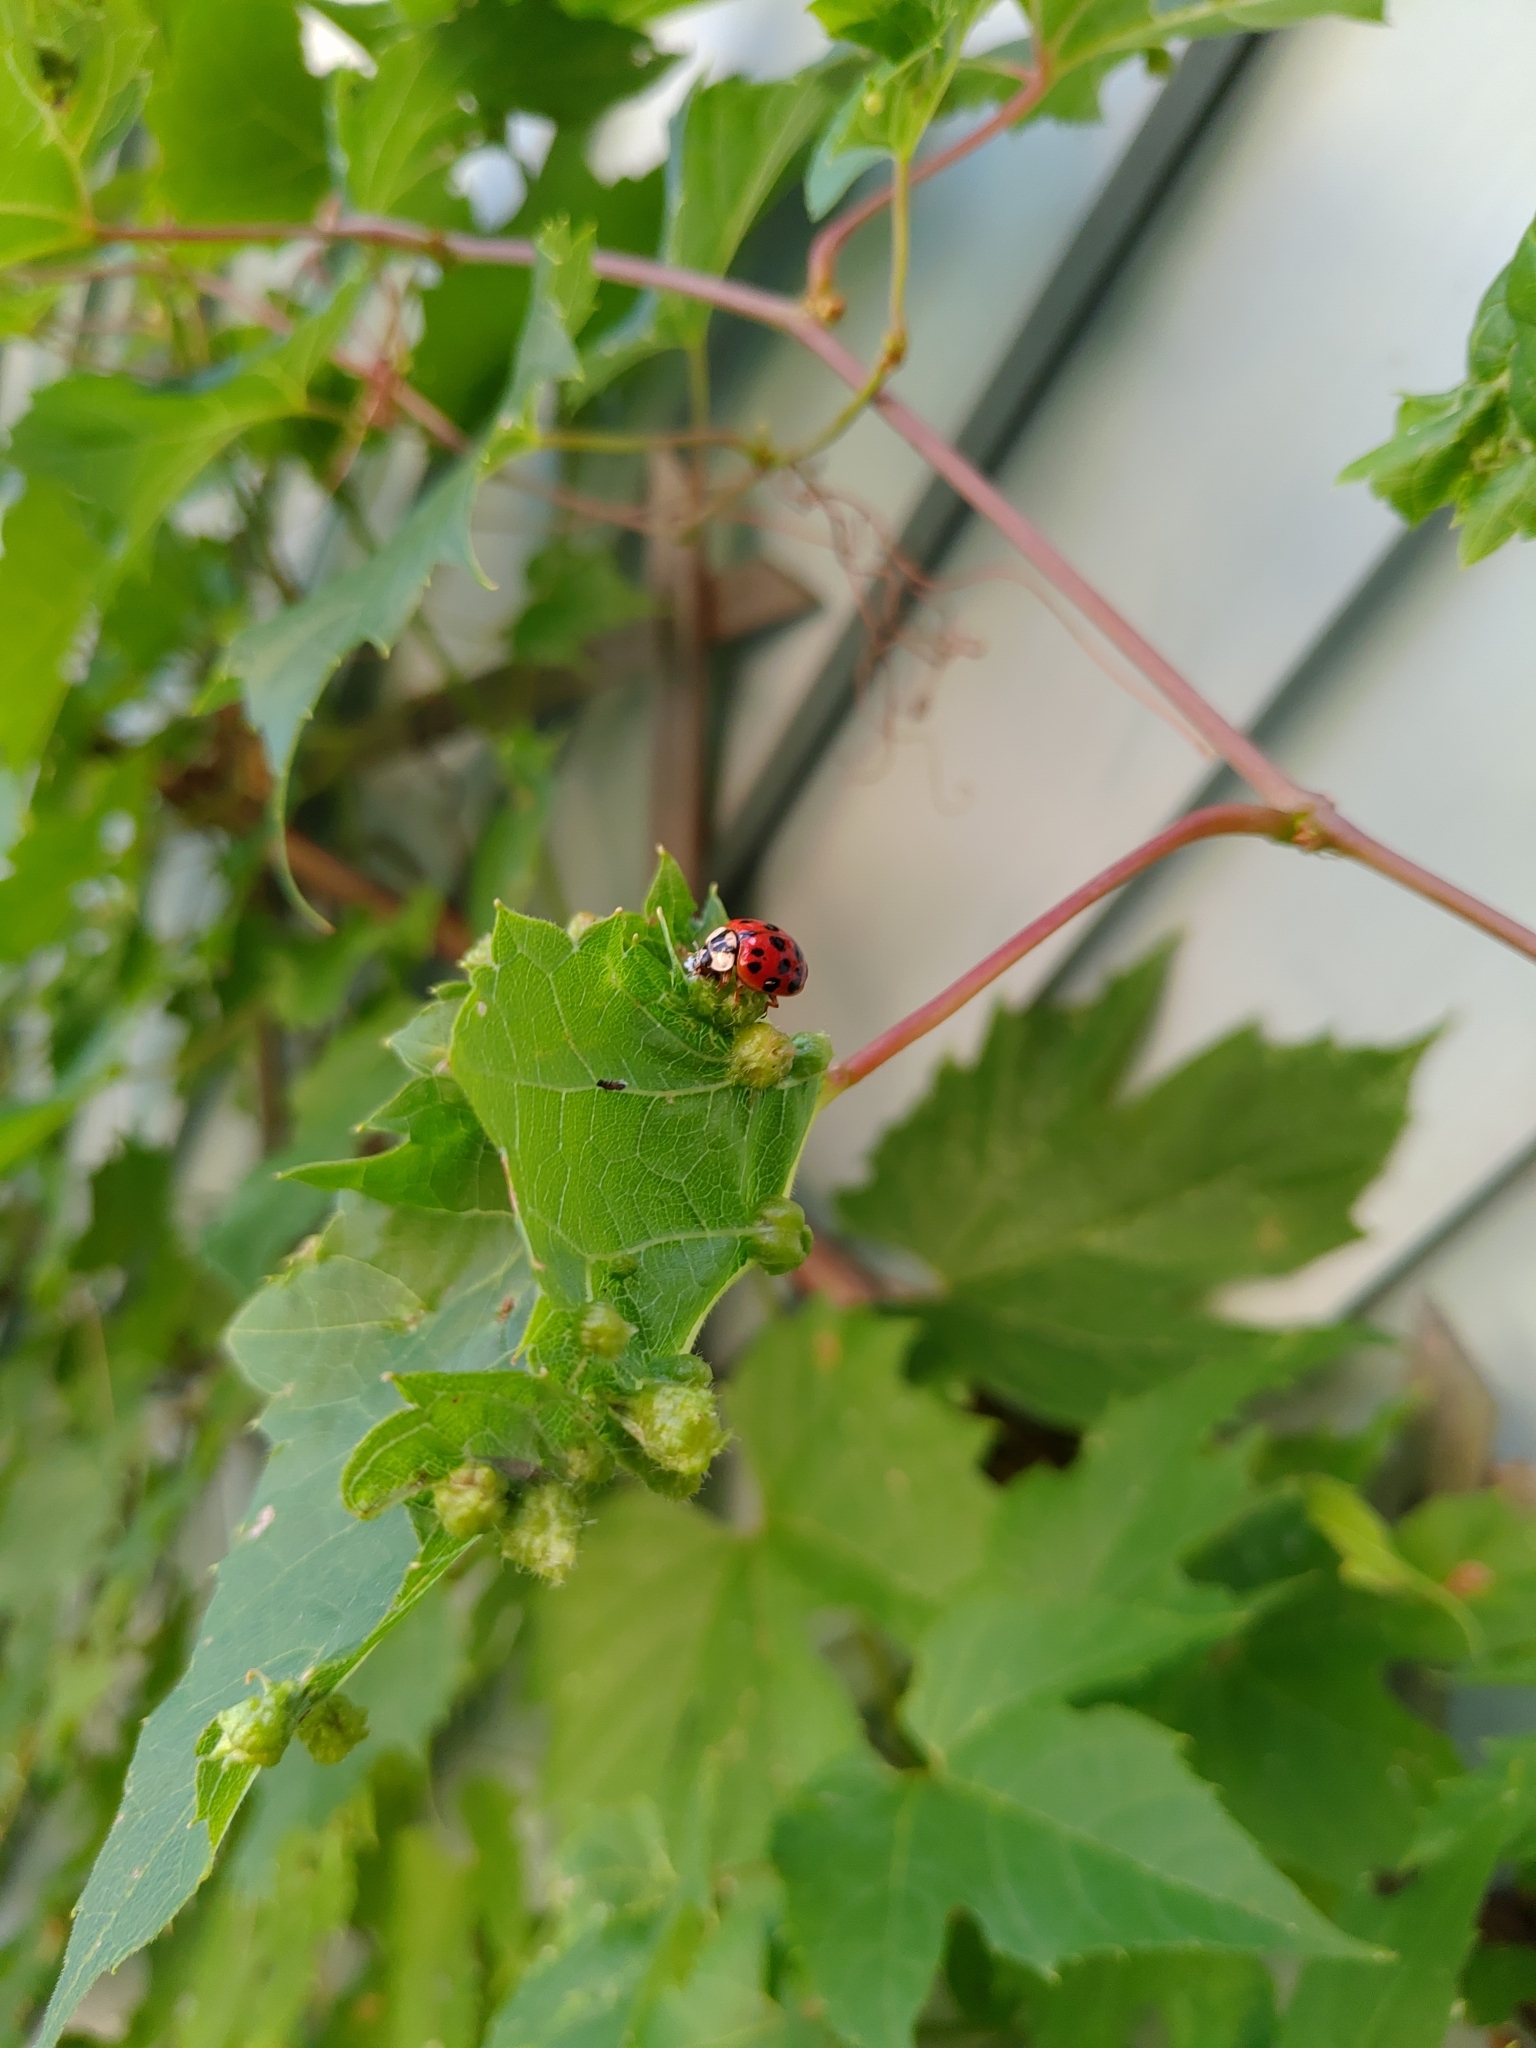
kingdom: Animalia
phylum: Arthropoda
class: Insecta
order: Coleoptera
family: Coccinellidae
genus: Harmonia
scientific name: Harmonia axyridis
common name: Harlequin ladybird
